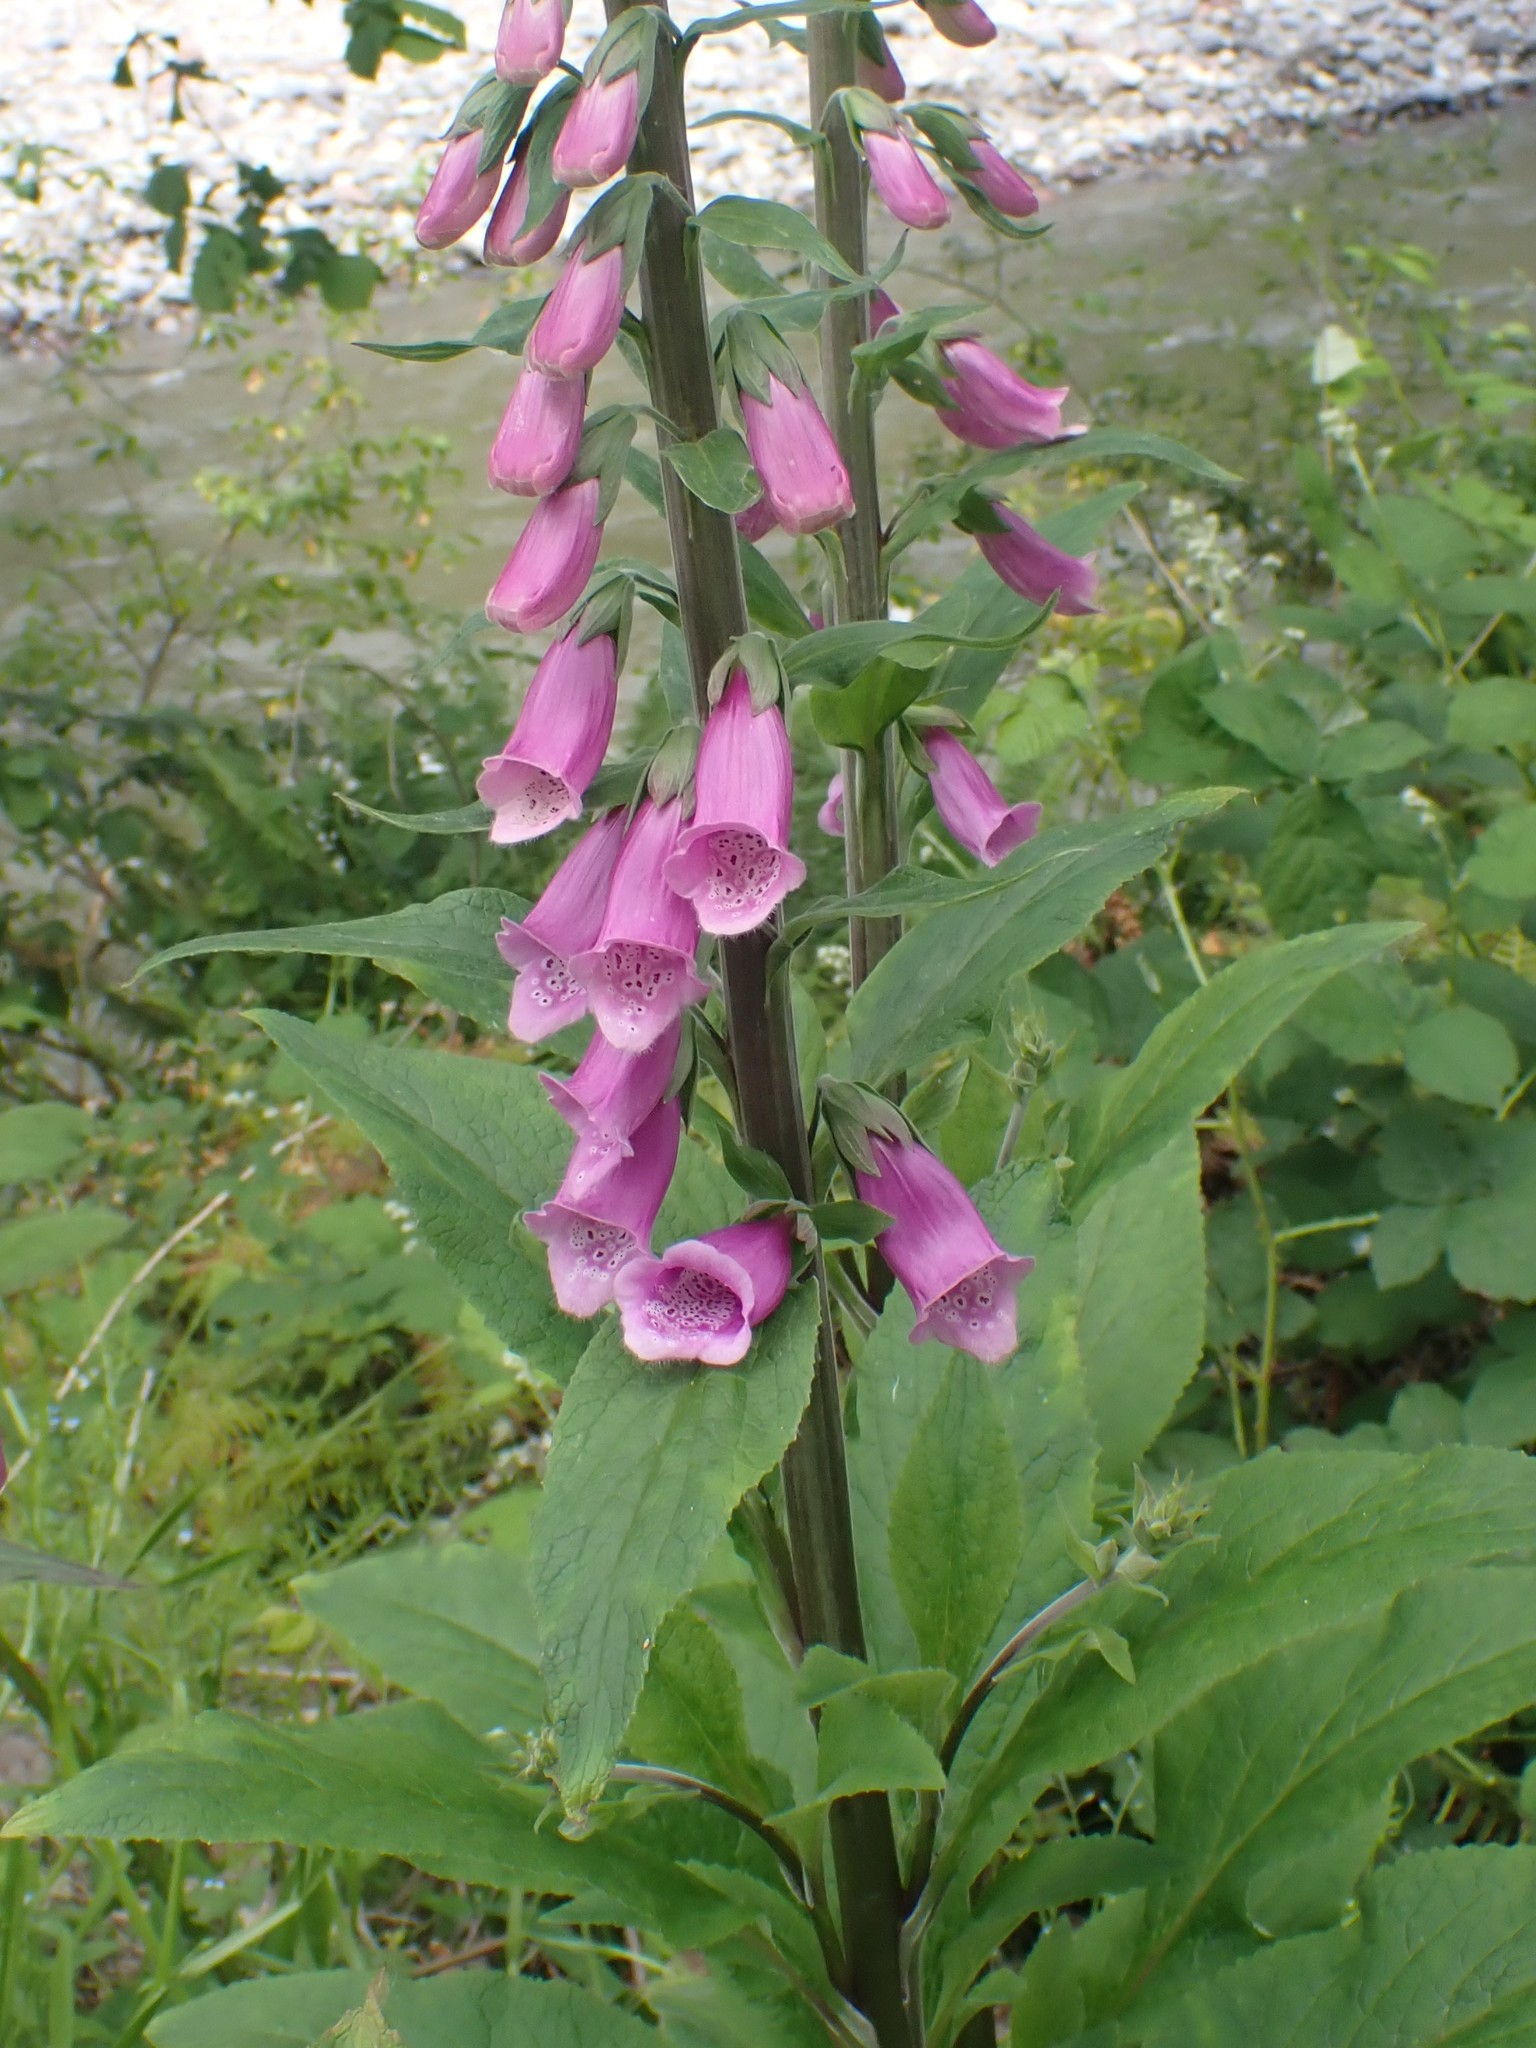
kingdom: Plantae
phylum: Tracheophyta
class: Magnoliopsida
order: Lamiales
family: Plantaginaceae
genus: Digitalis
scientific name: Digitalis purpurea
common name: Foxglove
